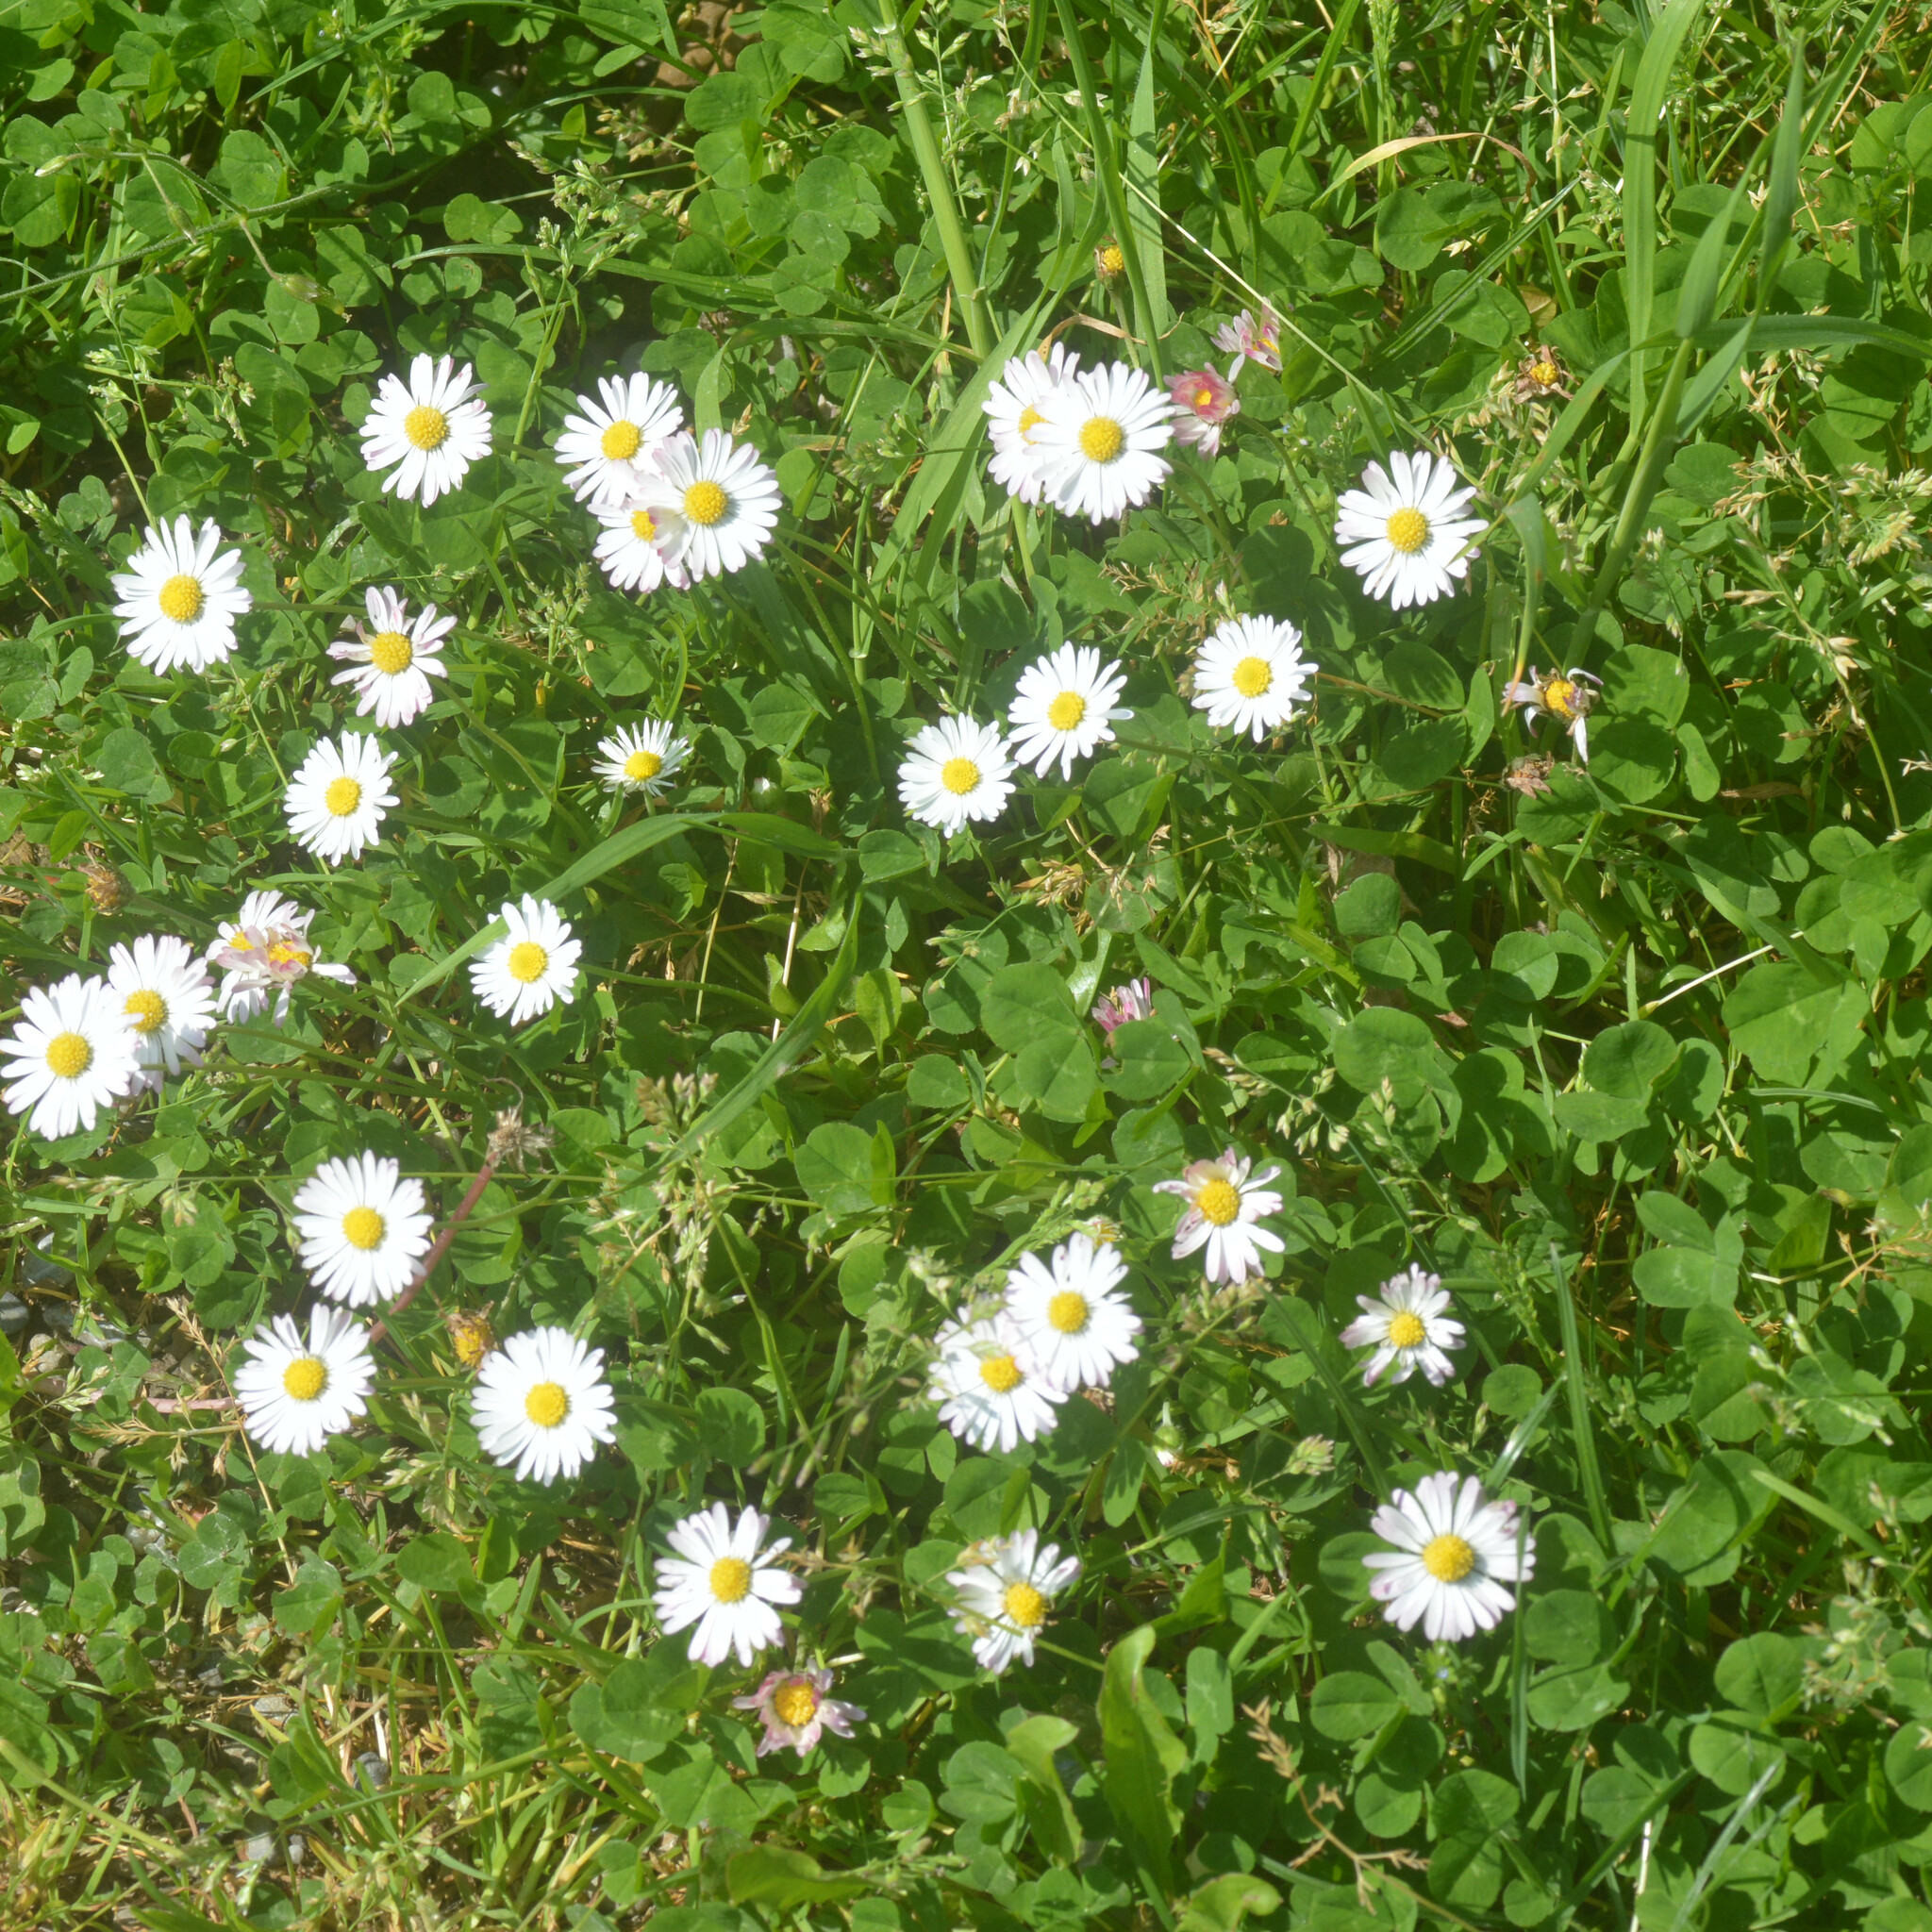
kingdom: Plantae
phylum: Tracheophyta
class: Magnoliopsida
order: Asterales
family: Asteraceae
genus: Bellis
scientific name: Bellis perennis
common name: Lawndaisy
